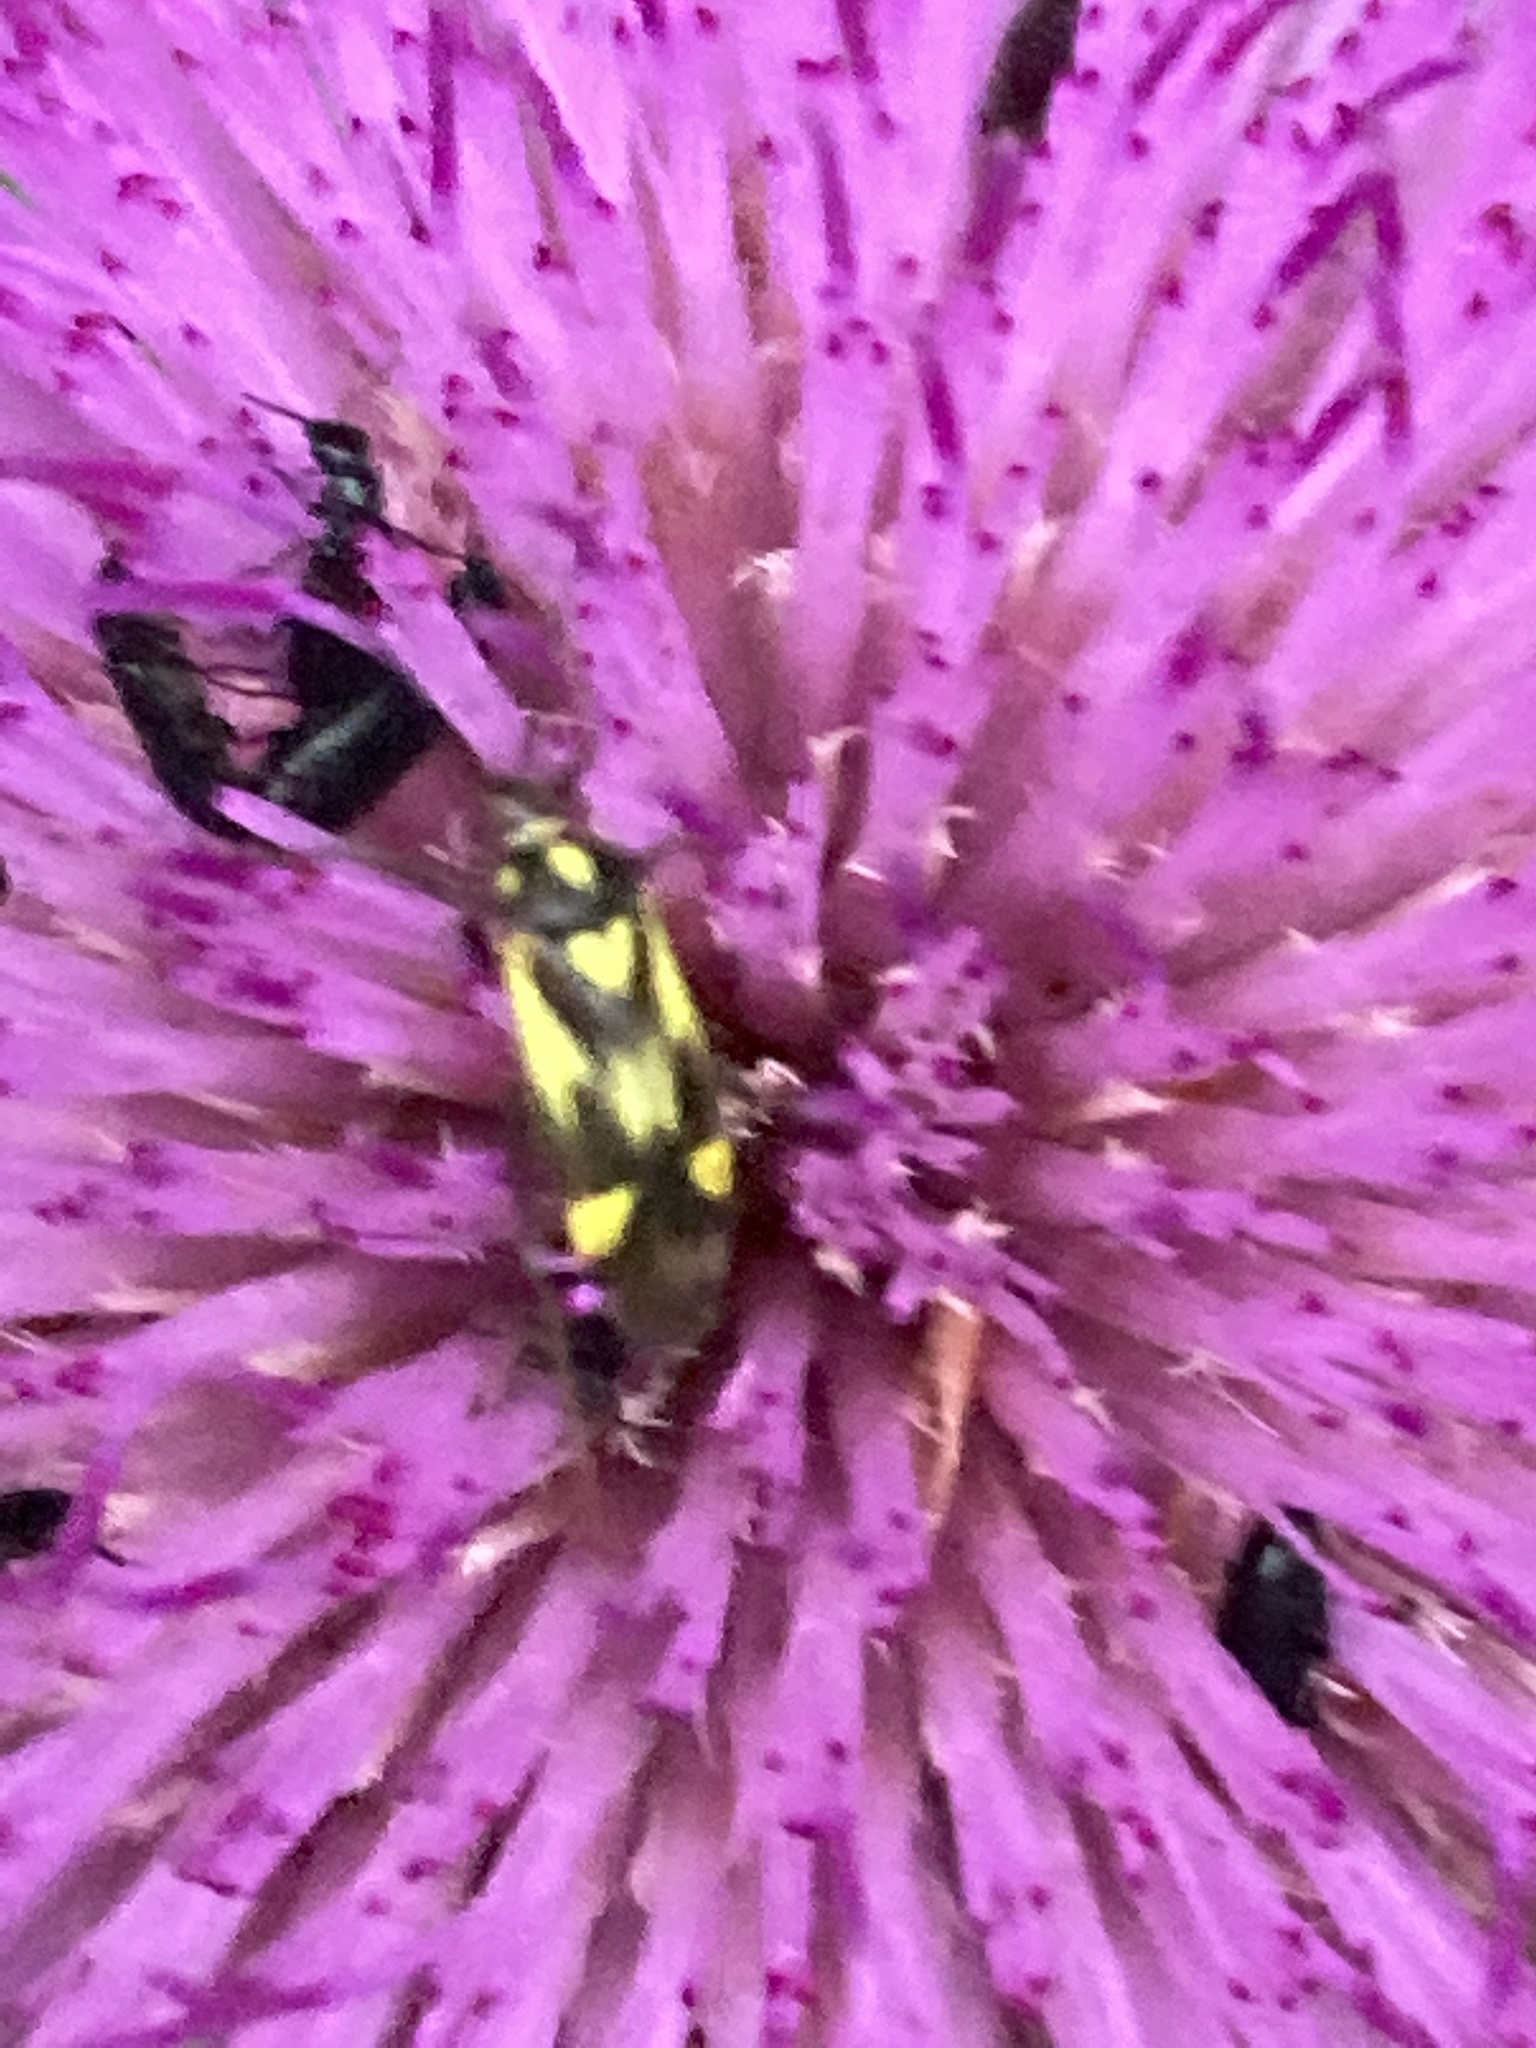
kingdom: Animalia
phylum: Arthropoda
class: Insecta
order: Hemiptera
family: Miridae
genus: Grypocoris
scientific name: Grypocoris sexguttatus
